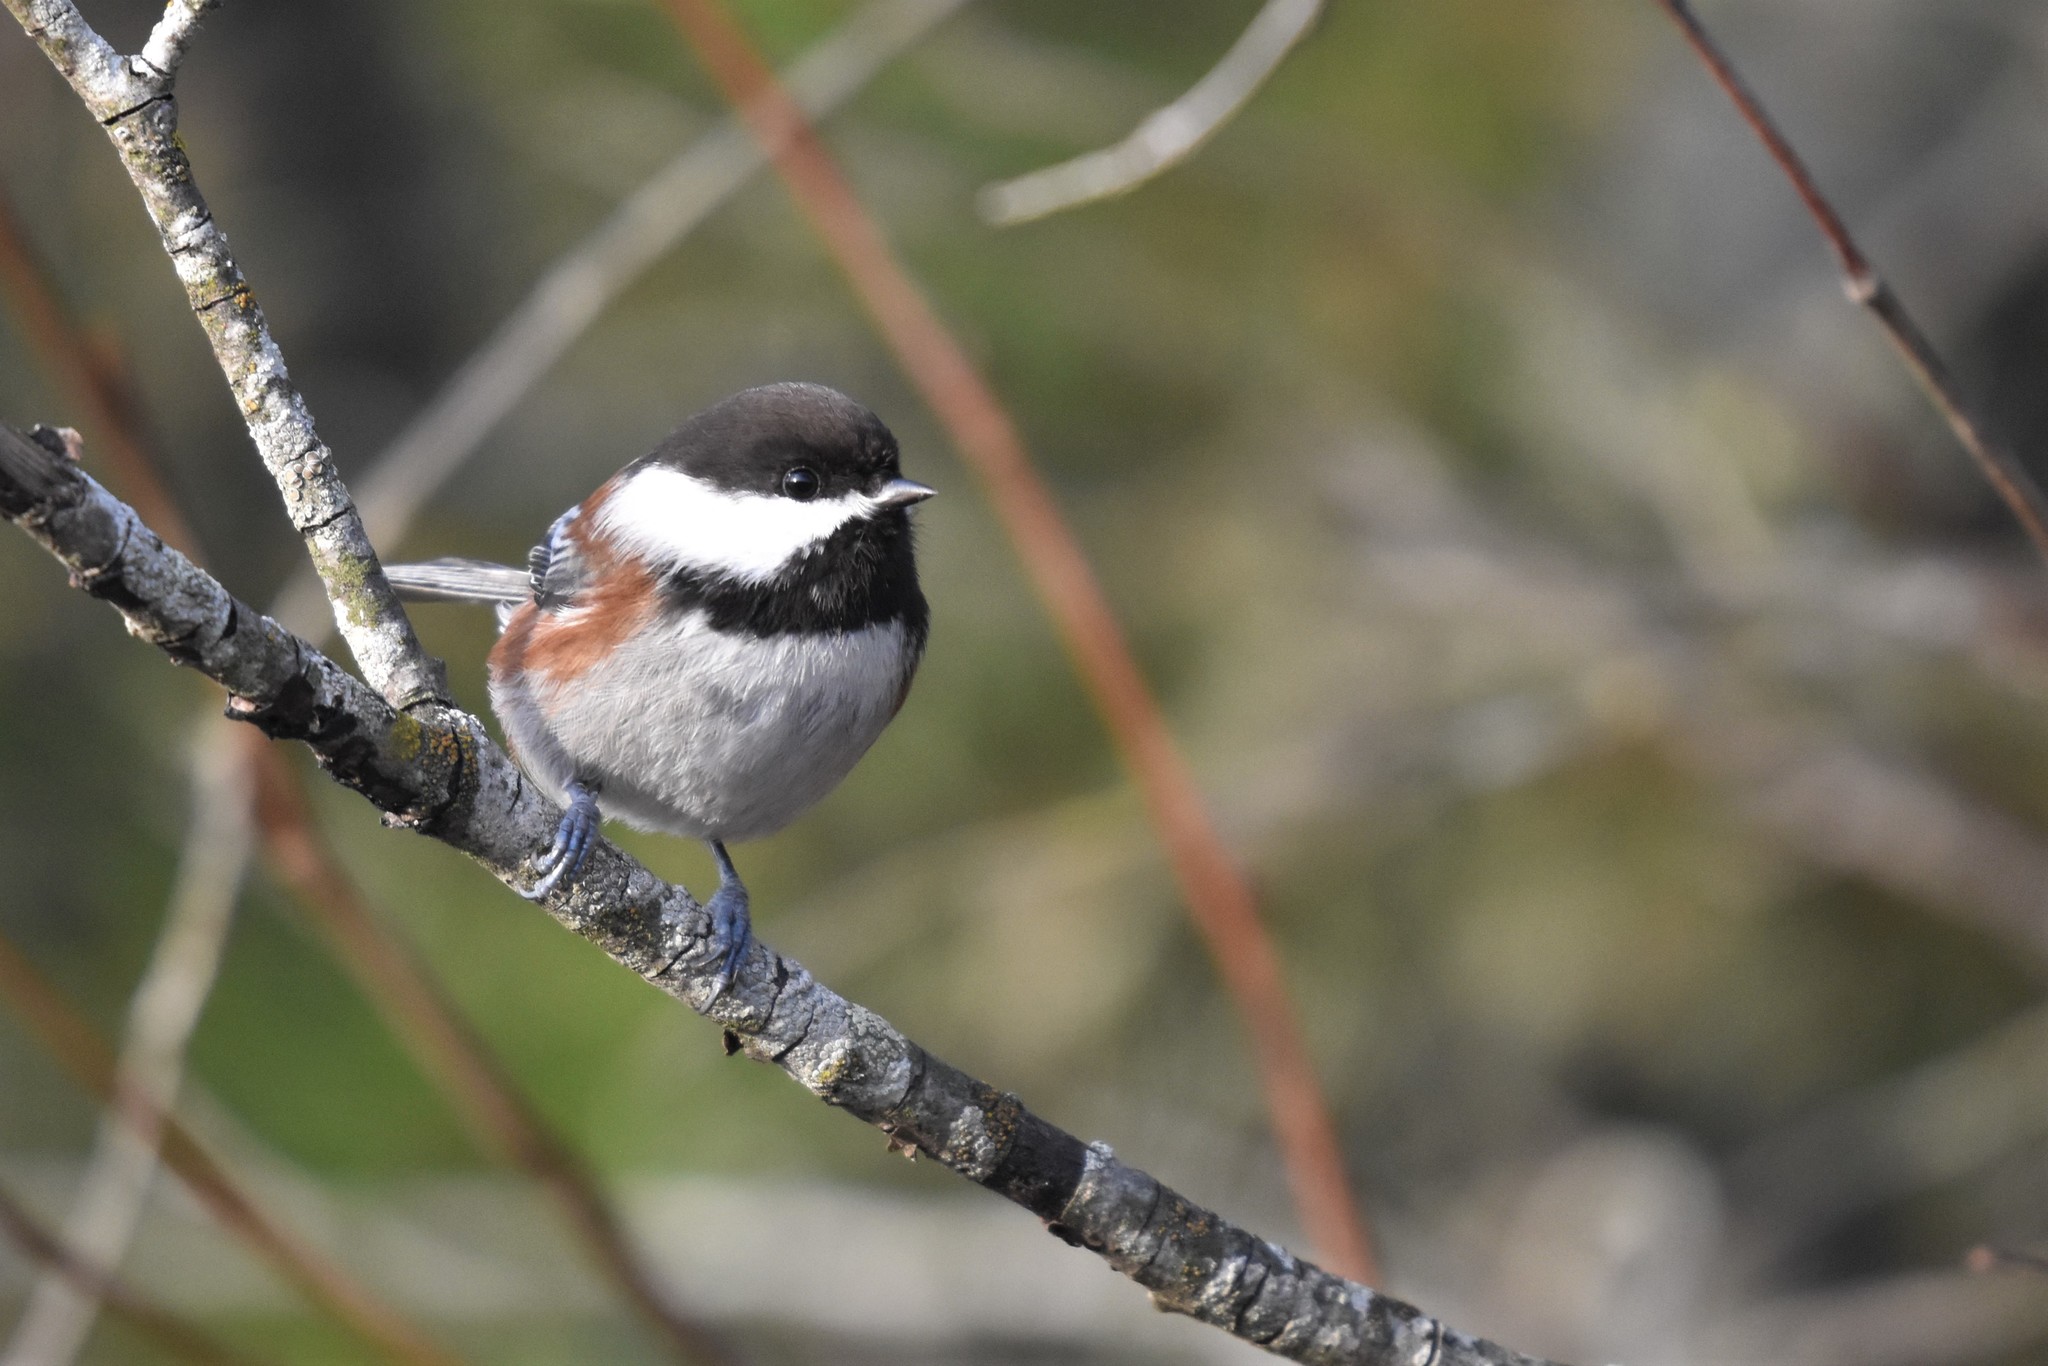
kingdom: Animalia
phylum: Chordata
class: Aves
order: Passeriformes
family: Paridae
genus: Poecile
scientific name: Poecile rufescens
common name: Chestnut-backed chickadee
